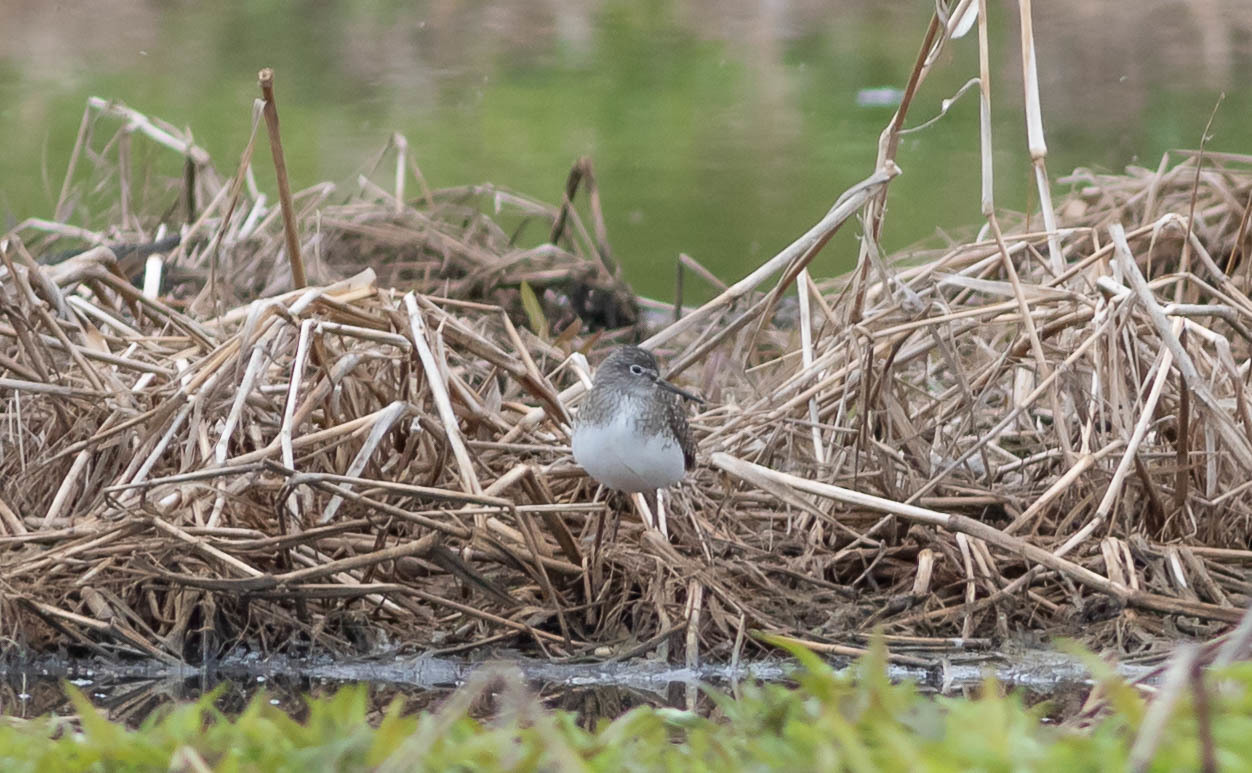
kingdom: Animalia
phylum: Chordata
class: Aves
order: Charadriiformes
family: Scolopacidae
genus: Tringa
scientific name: Tringa solitaria
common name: Solitary sandpiper
